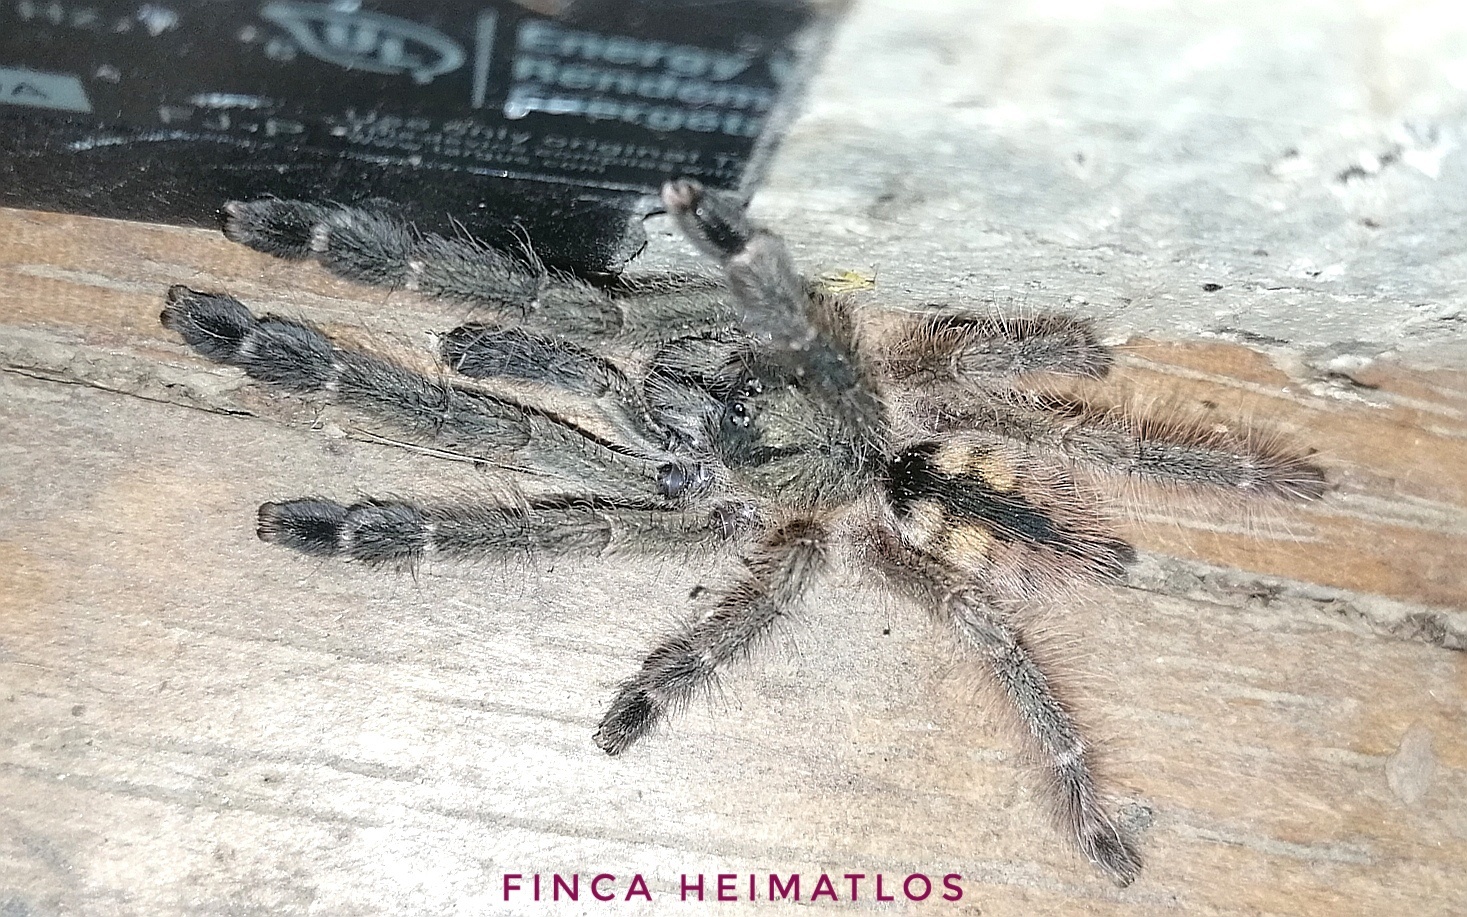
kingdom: Animalia
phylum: Arthropoda
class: Arachnida
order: Araneae
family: Theraphosidae
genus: Amazonius
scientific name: Amazonius elenae
